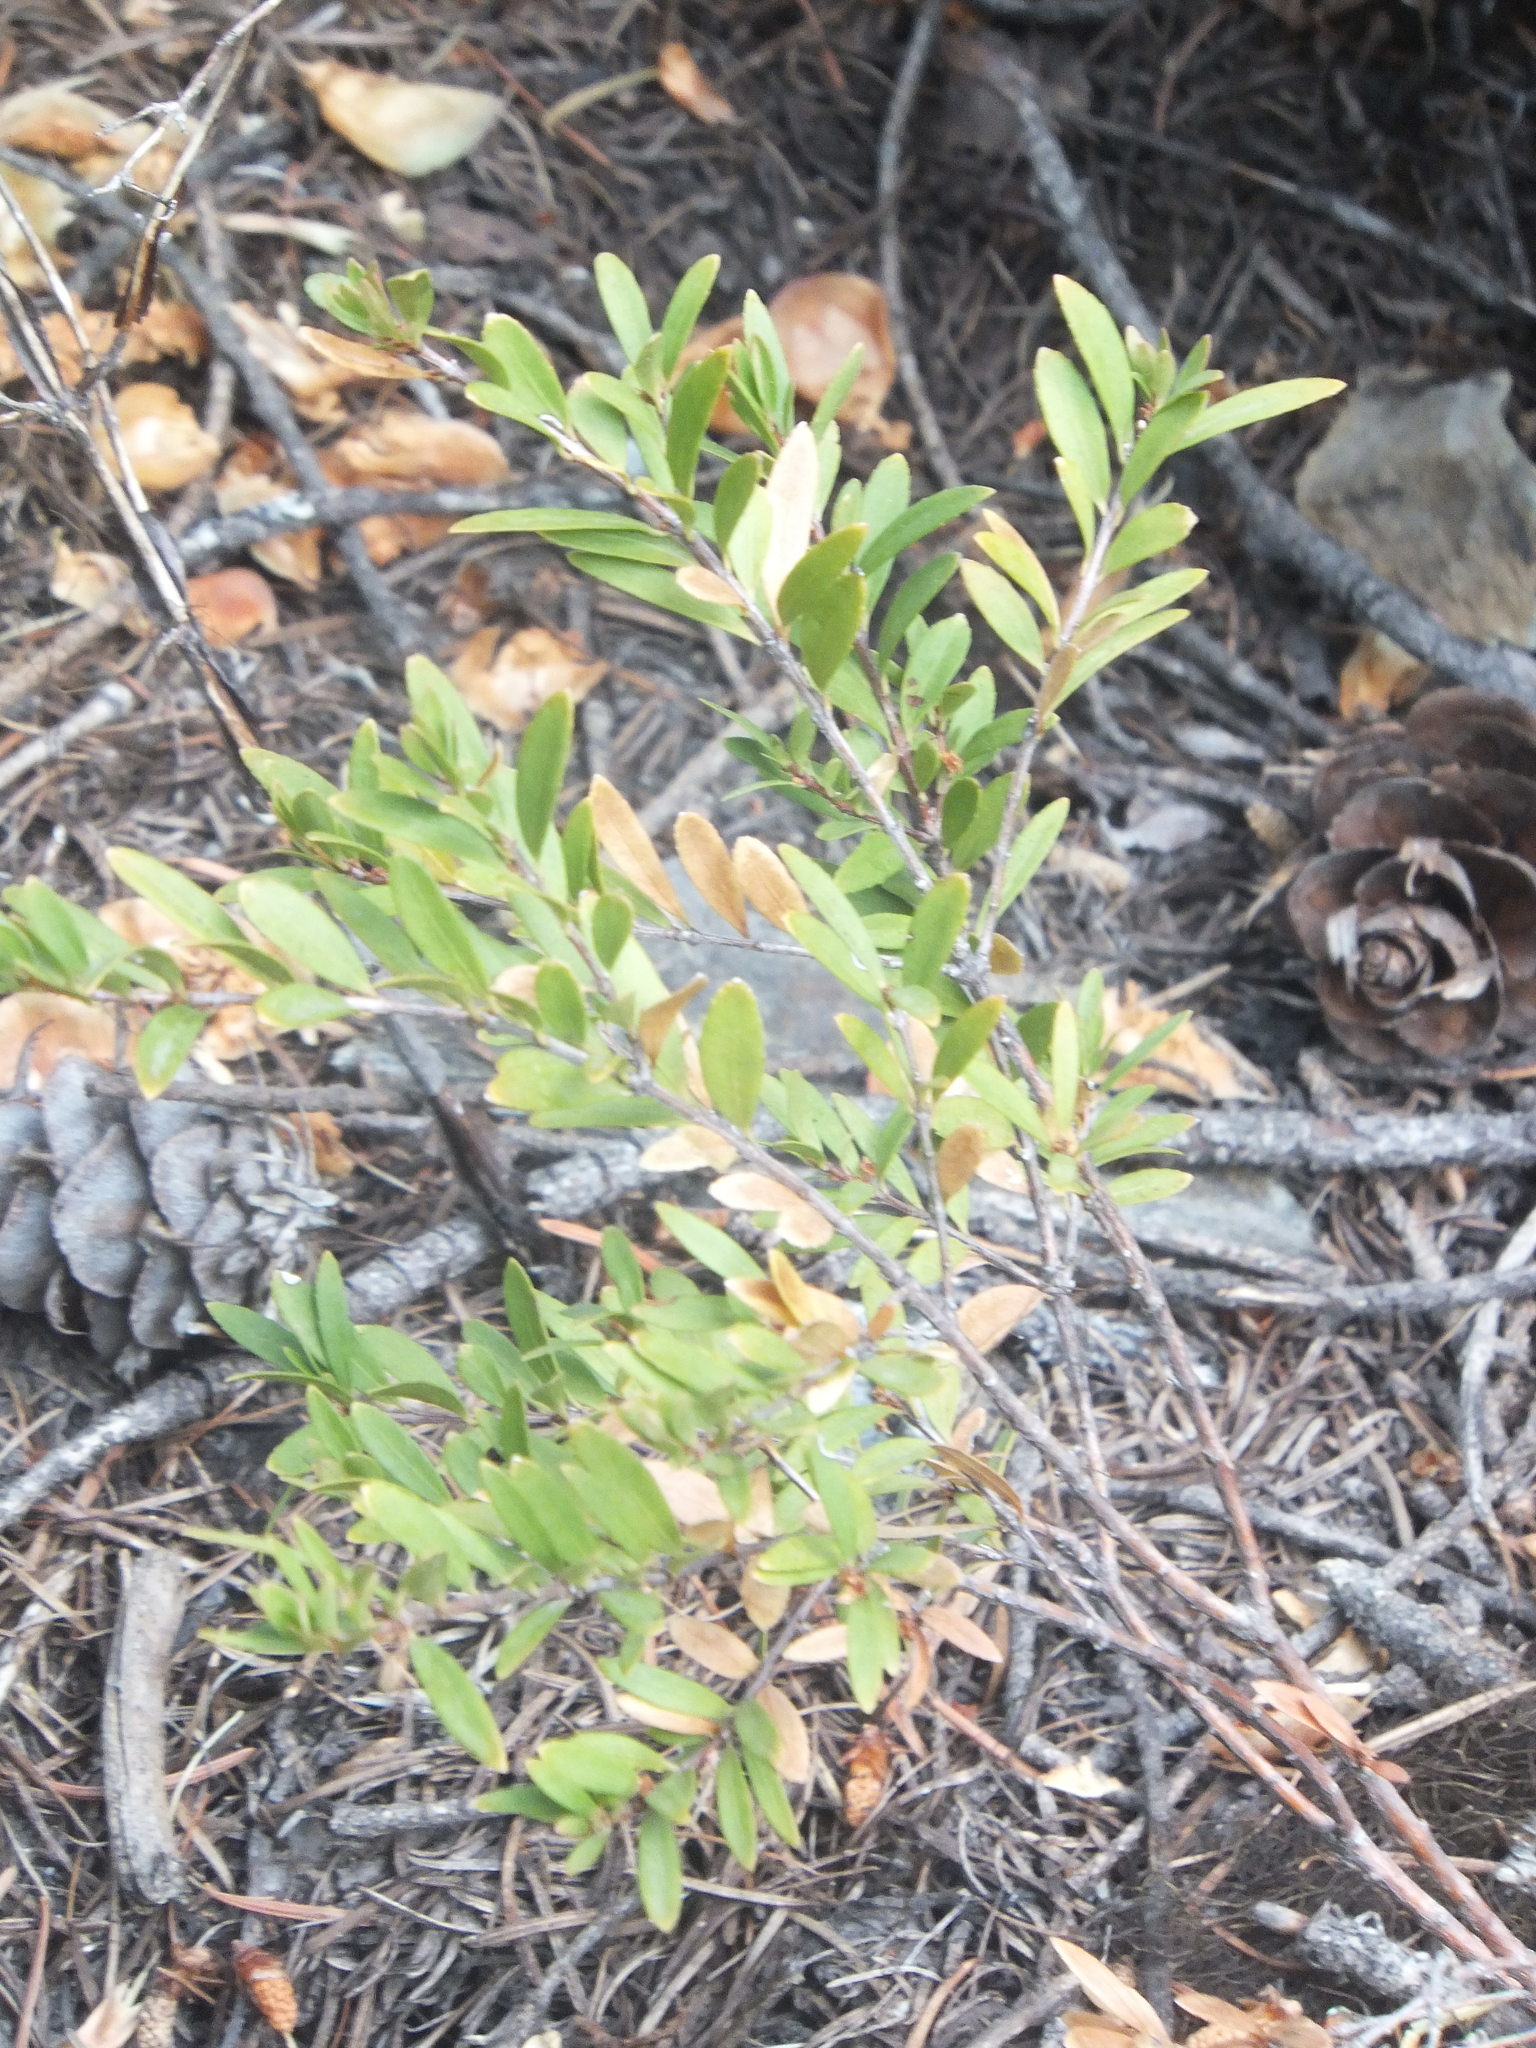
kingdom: Plantae
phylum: Tracheophyta
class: Magnoliopsida
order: Celastrales
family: Celastraceae
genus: Paxistima
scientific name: Paxistima myrsinites
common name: Mountain-lover
